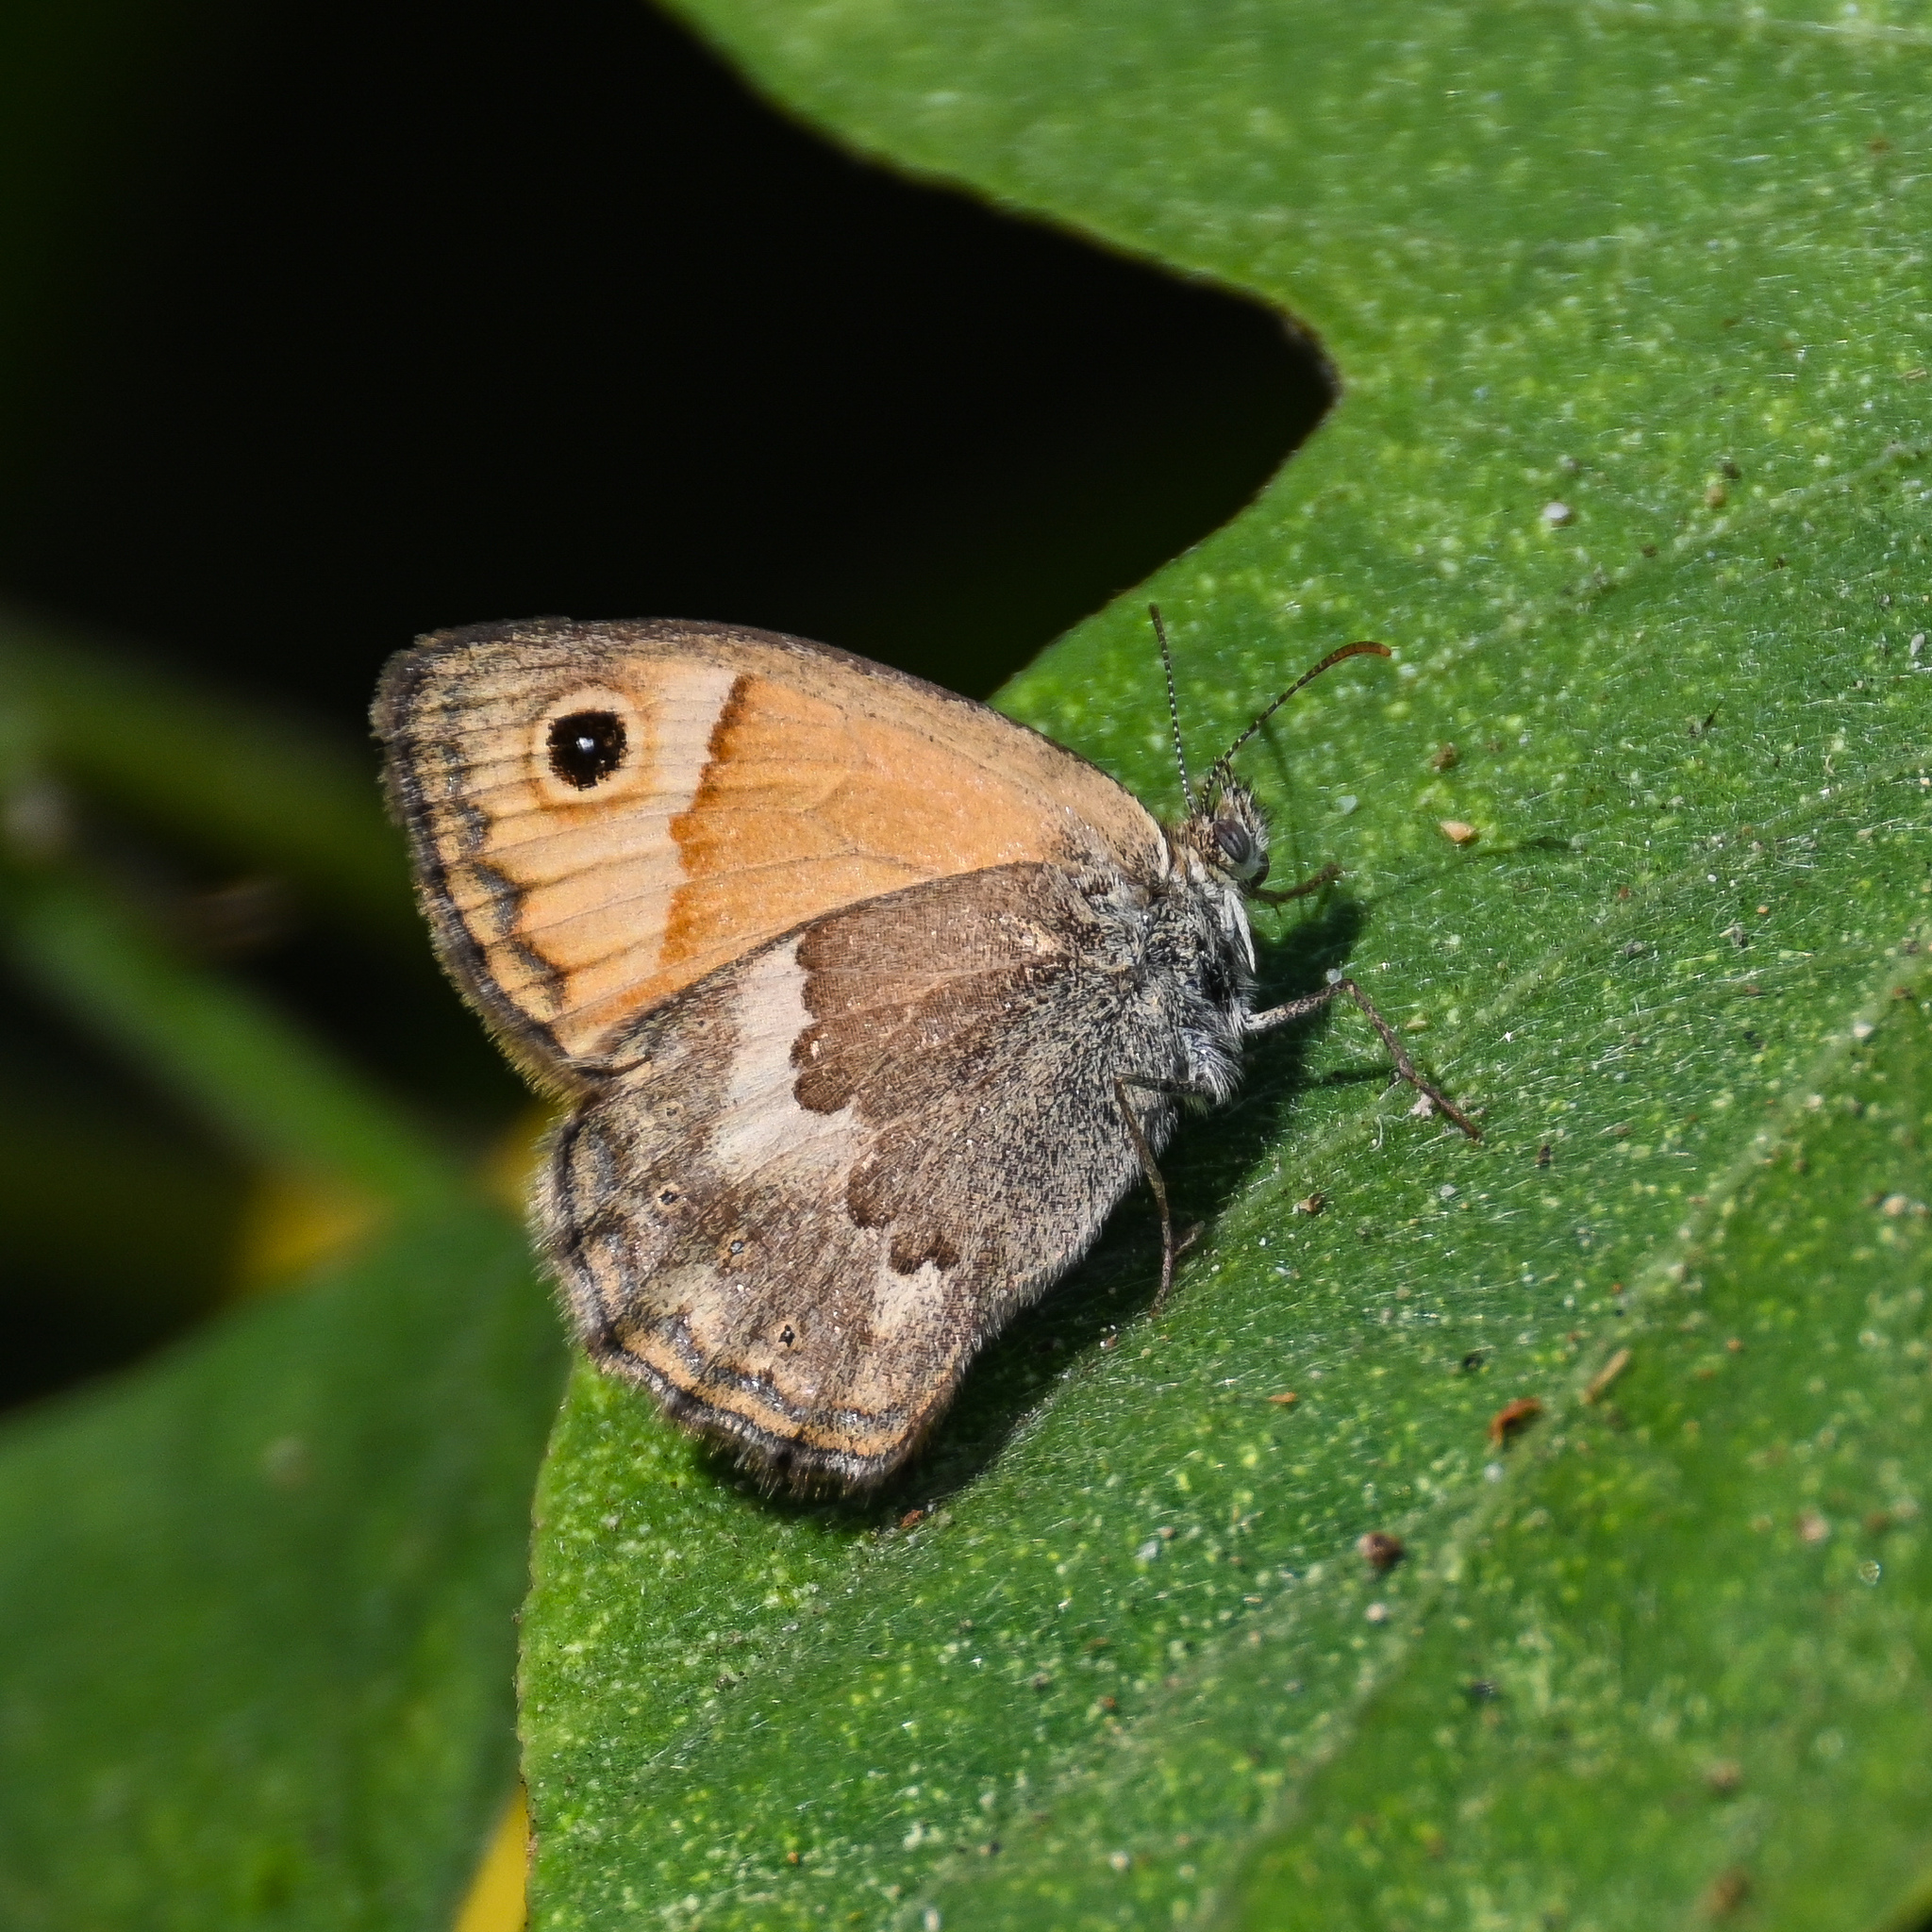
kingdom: Animalia
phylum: Arthropoda
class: Insecta
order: Lepidoptera
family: Nymphalidae
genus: Coenonympha
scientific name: Coenonympha thyrsis
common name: Cretan small heath
